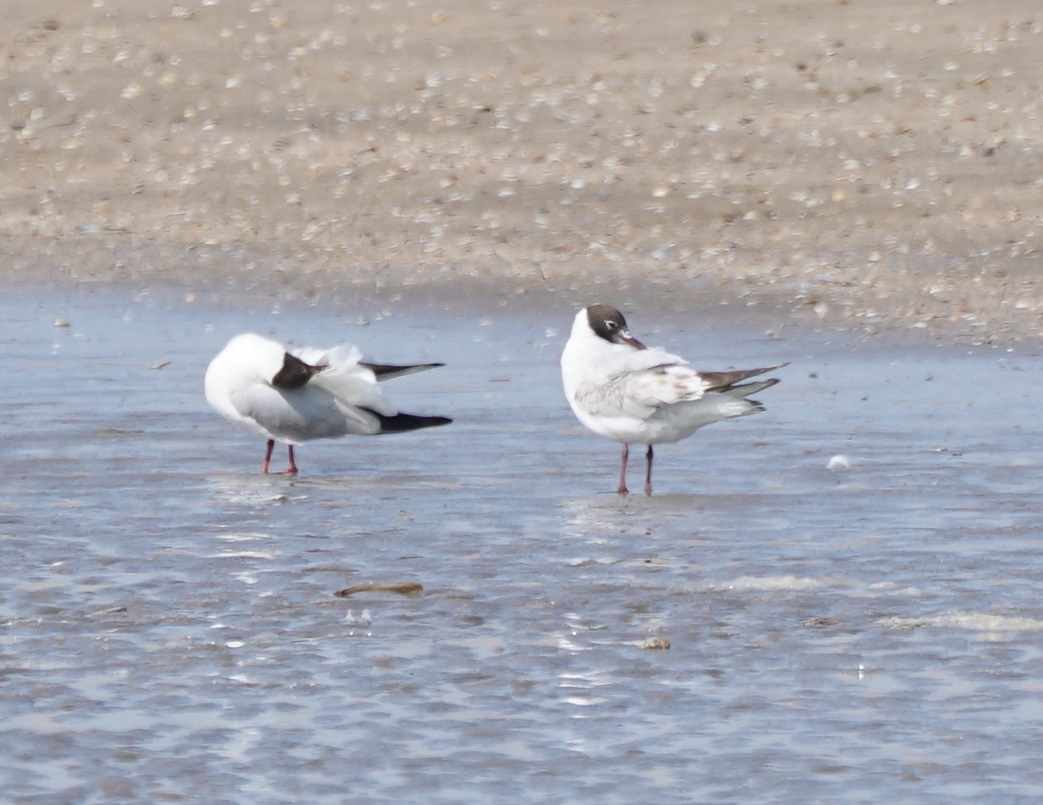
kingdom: Animalia
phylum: Chordata
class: Aves
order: Charadriiformes
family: Laridae
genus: Chroicocephalus
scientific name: Chroicocephalus ridibundus
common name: Black-headed gull
